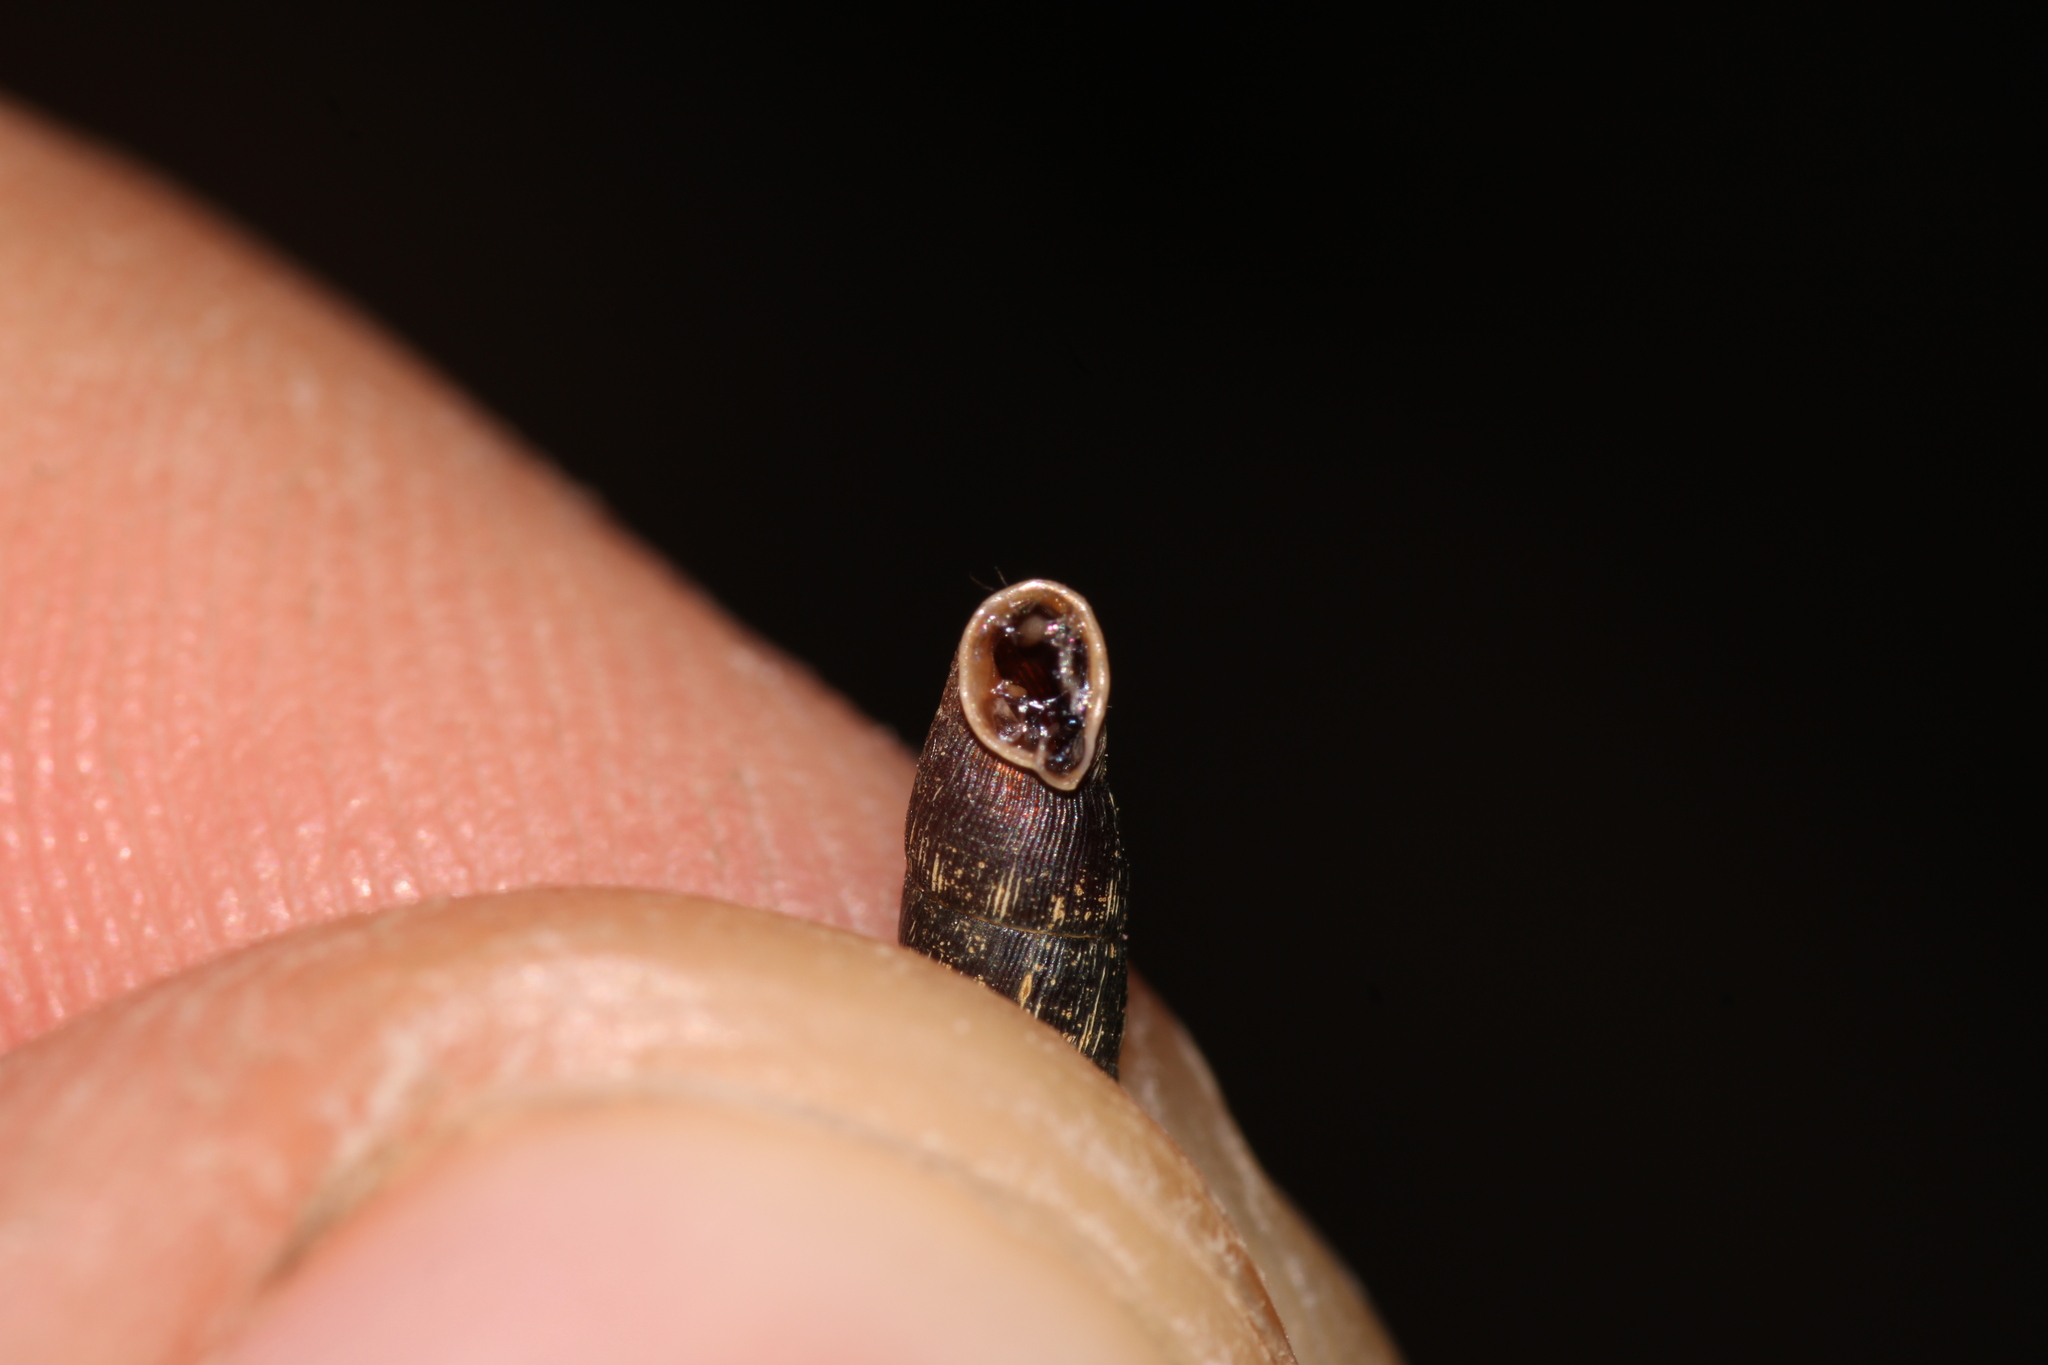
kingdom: Animalia
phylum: Mollusca
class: Gastropoda
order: Stylommatophora
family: Clausiliidae
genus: Clausilia
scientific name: Clausilia bidentata
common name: Two-toothed door snail
